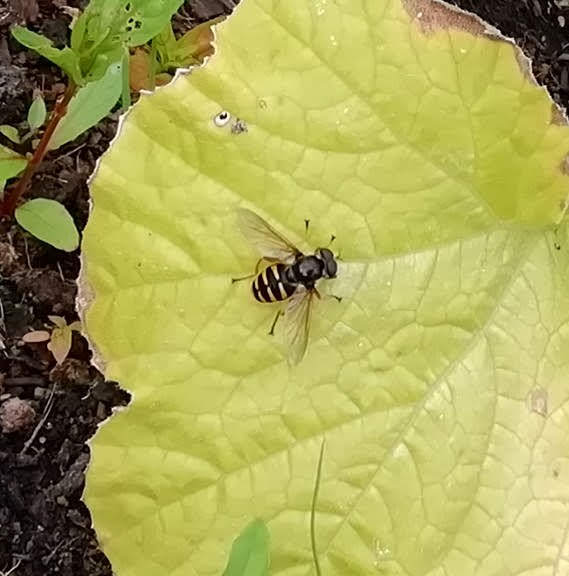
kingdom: Animalia
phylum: Arthropoda
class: Insecta
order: Diptera
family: Syrphidae
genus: Sericomyia
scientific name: Sericomyia silentis
